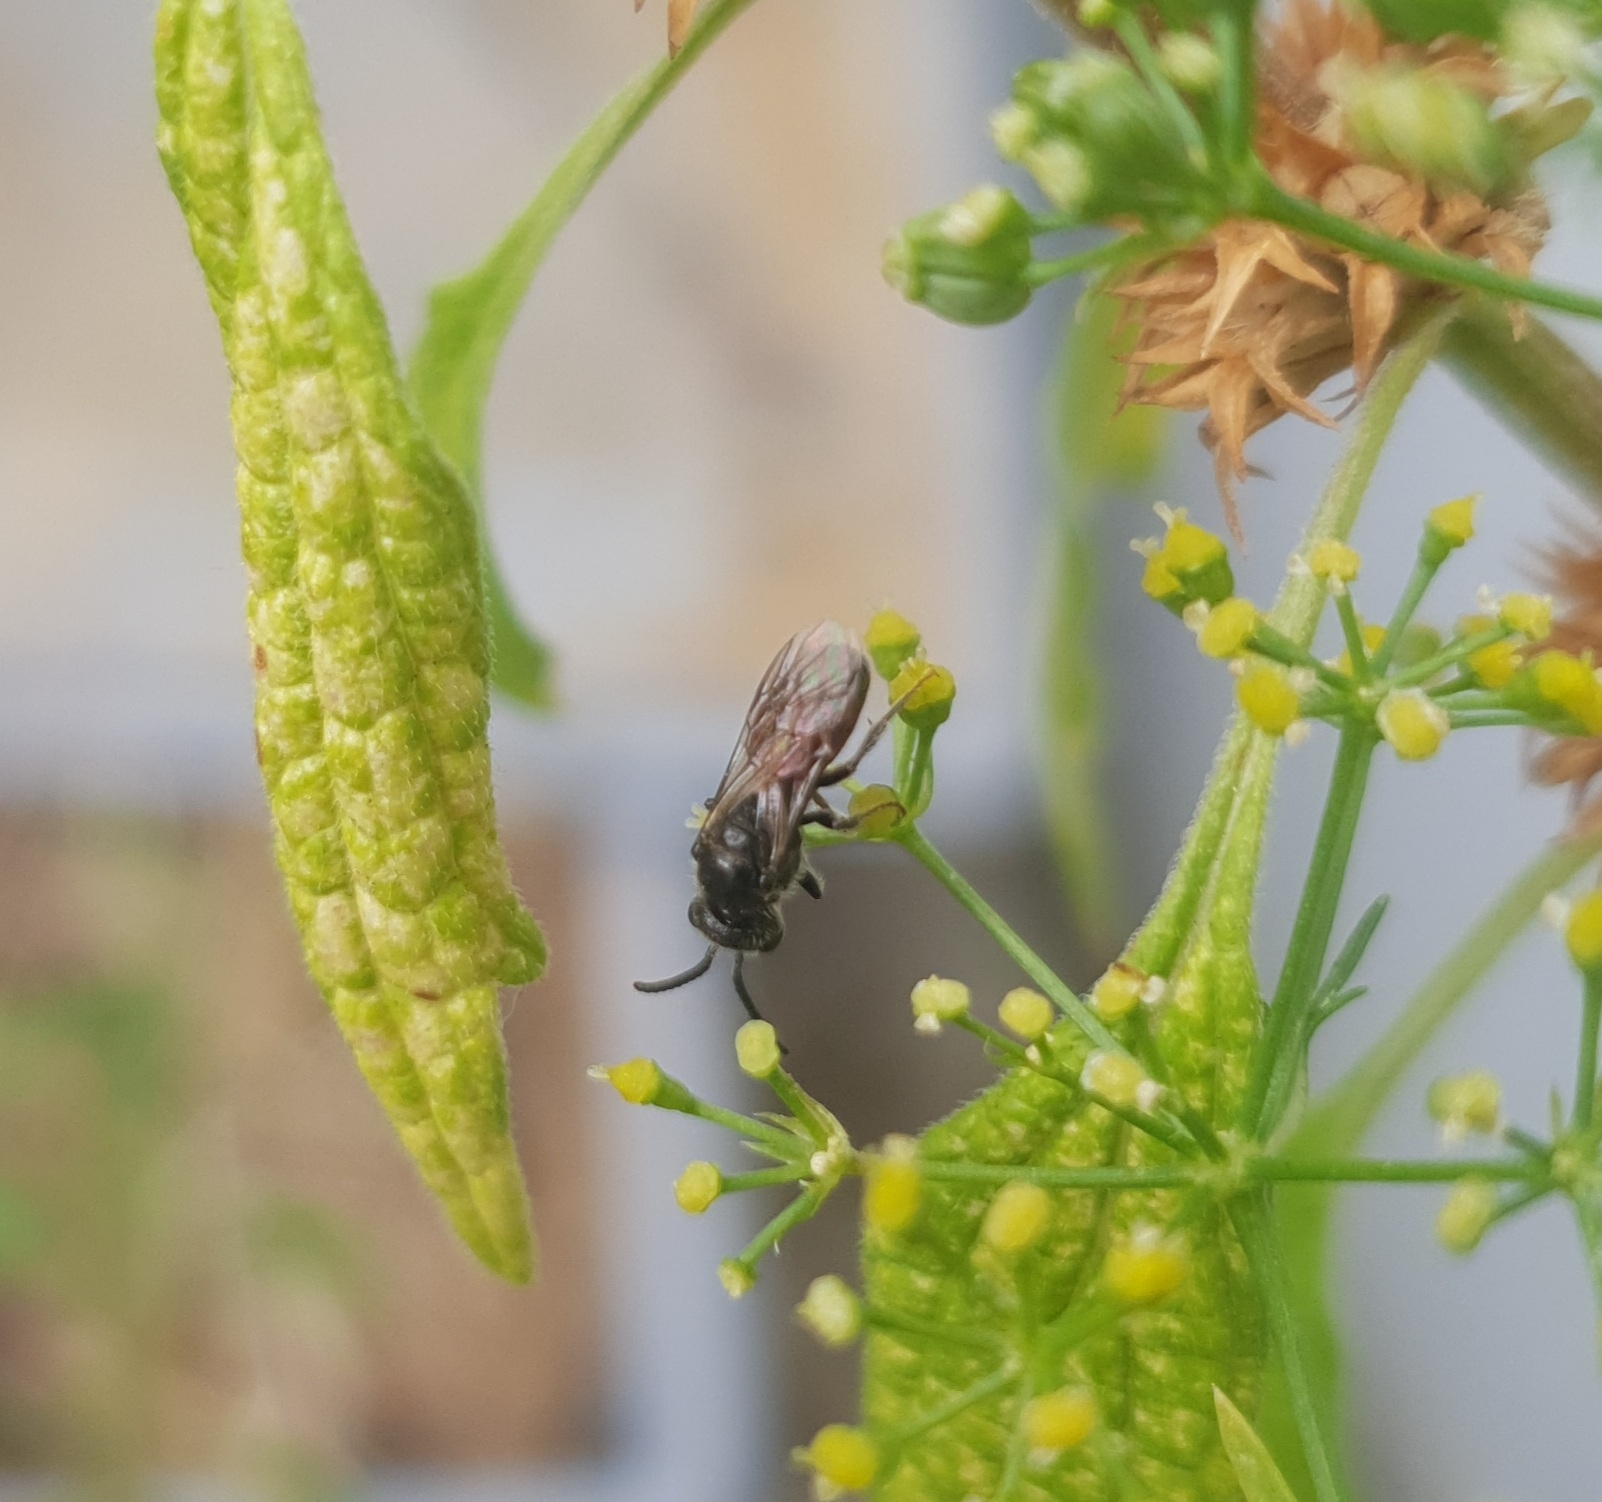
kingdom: Animalia
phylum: Arthropoda
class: Insecta
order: Hymenoptera
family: Halictidae
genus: Sphecodes
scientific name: Sphecodes
